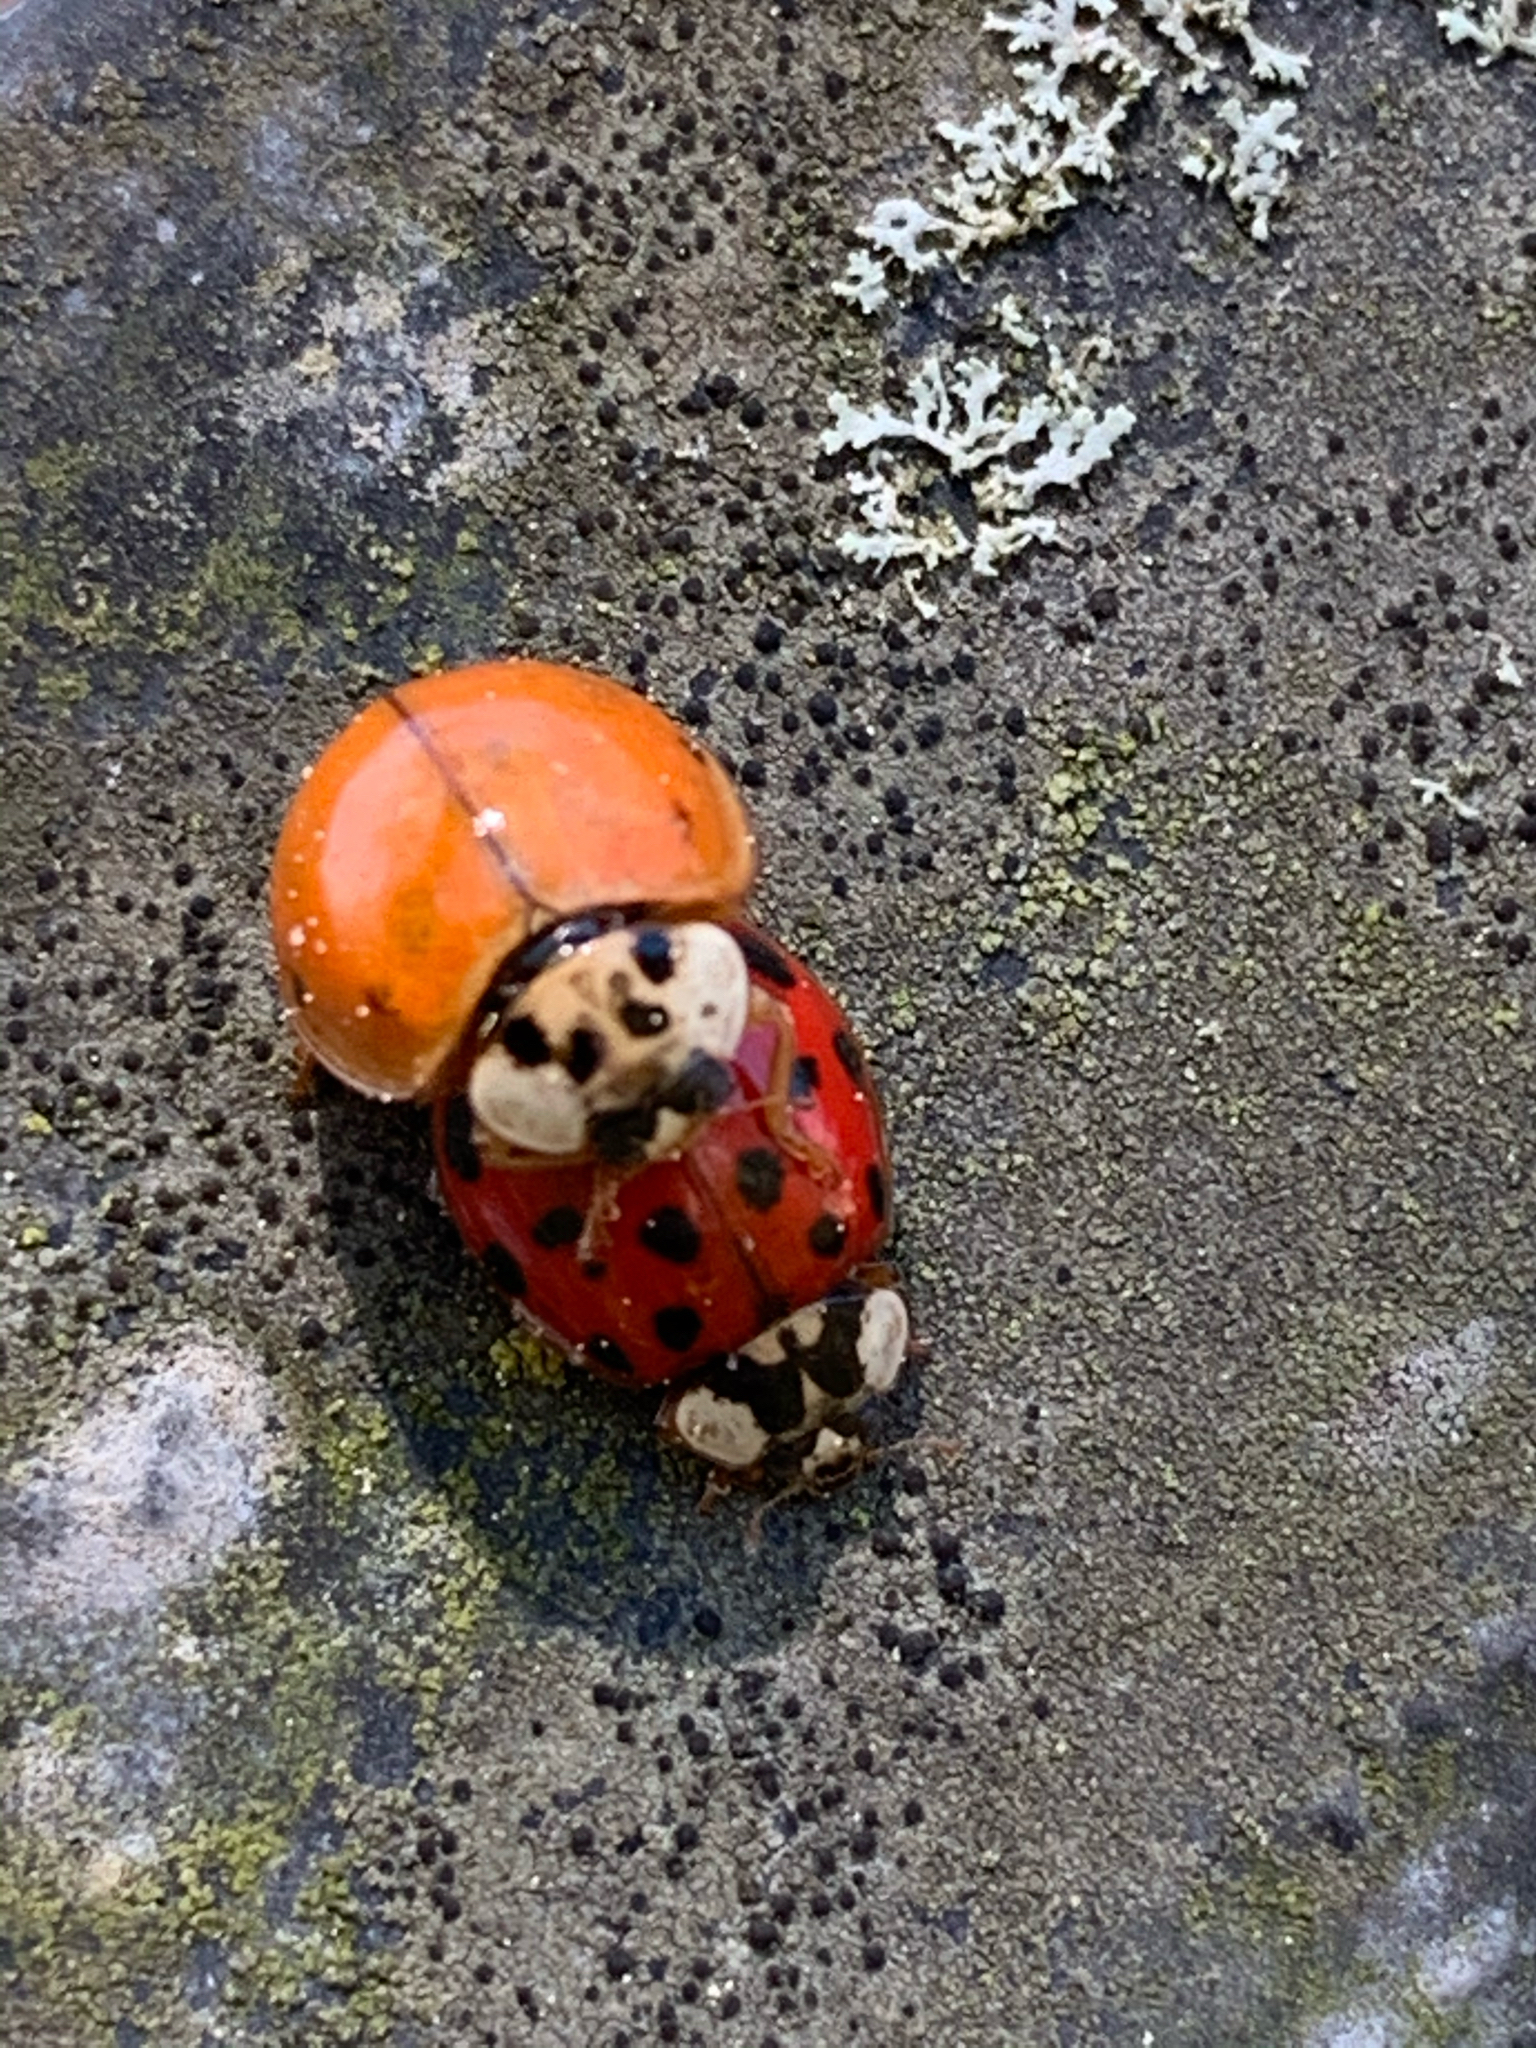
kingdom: Animalia
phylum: Arthropoda
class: Insecta
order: Coleoptera
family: Coccinellidae
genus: Harmonia
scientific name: Harmonia axyridis
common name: Harlequin ladybird
